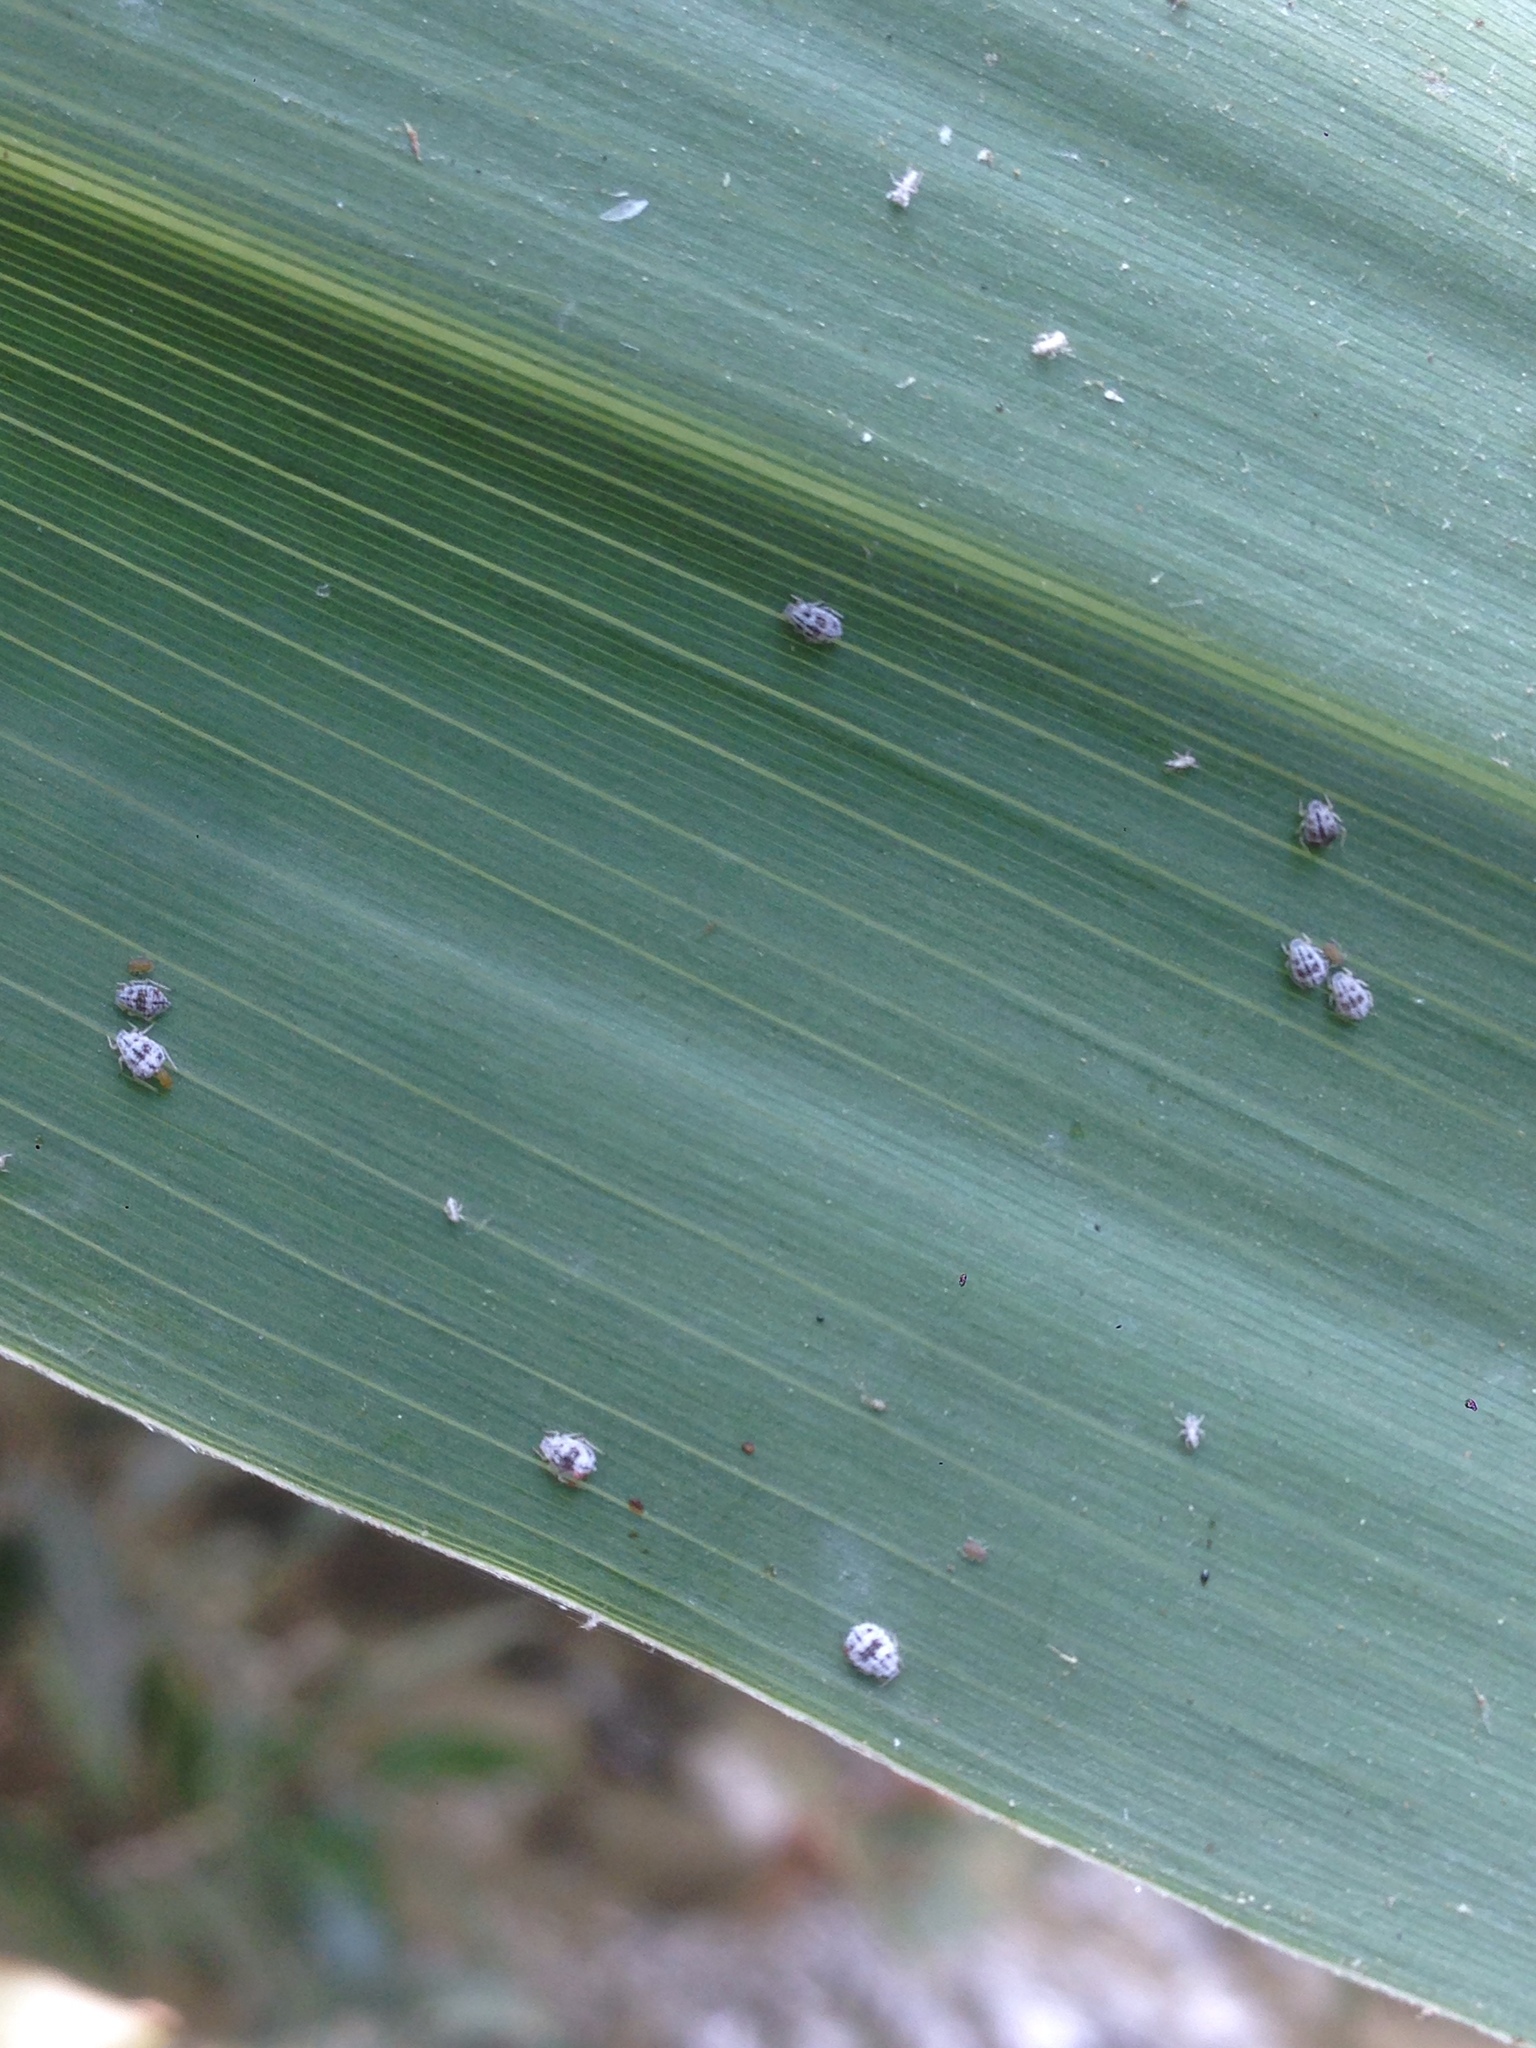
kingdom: Animalia
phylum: Arthropoda
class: Insecta
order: Hemiptera
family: Aphididae
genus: Melanaphis
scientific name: Melanaphis donacis
